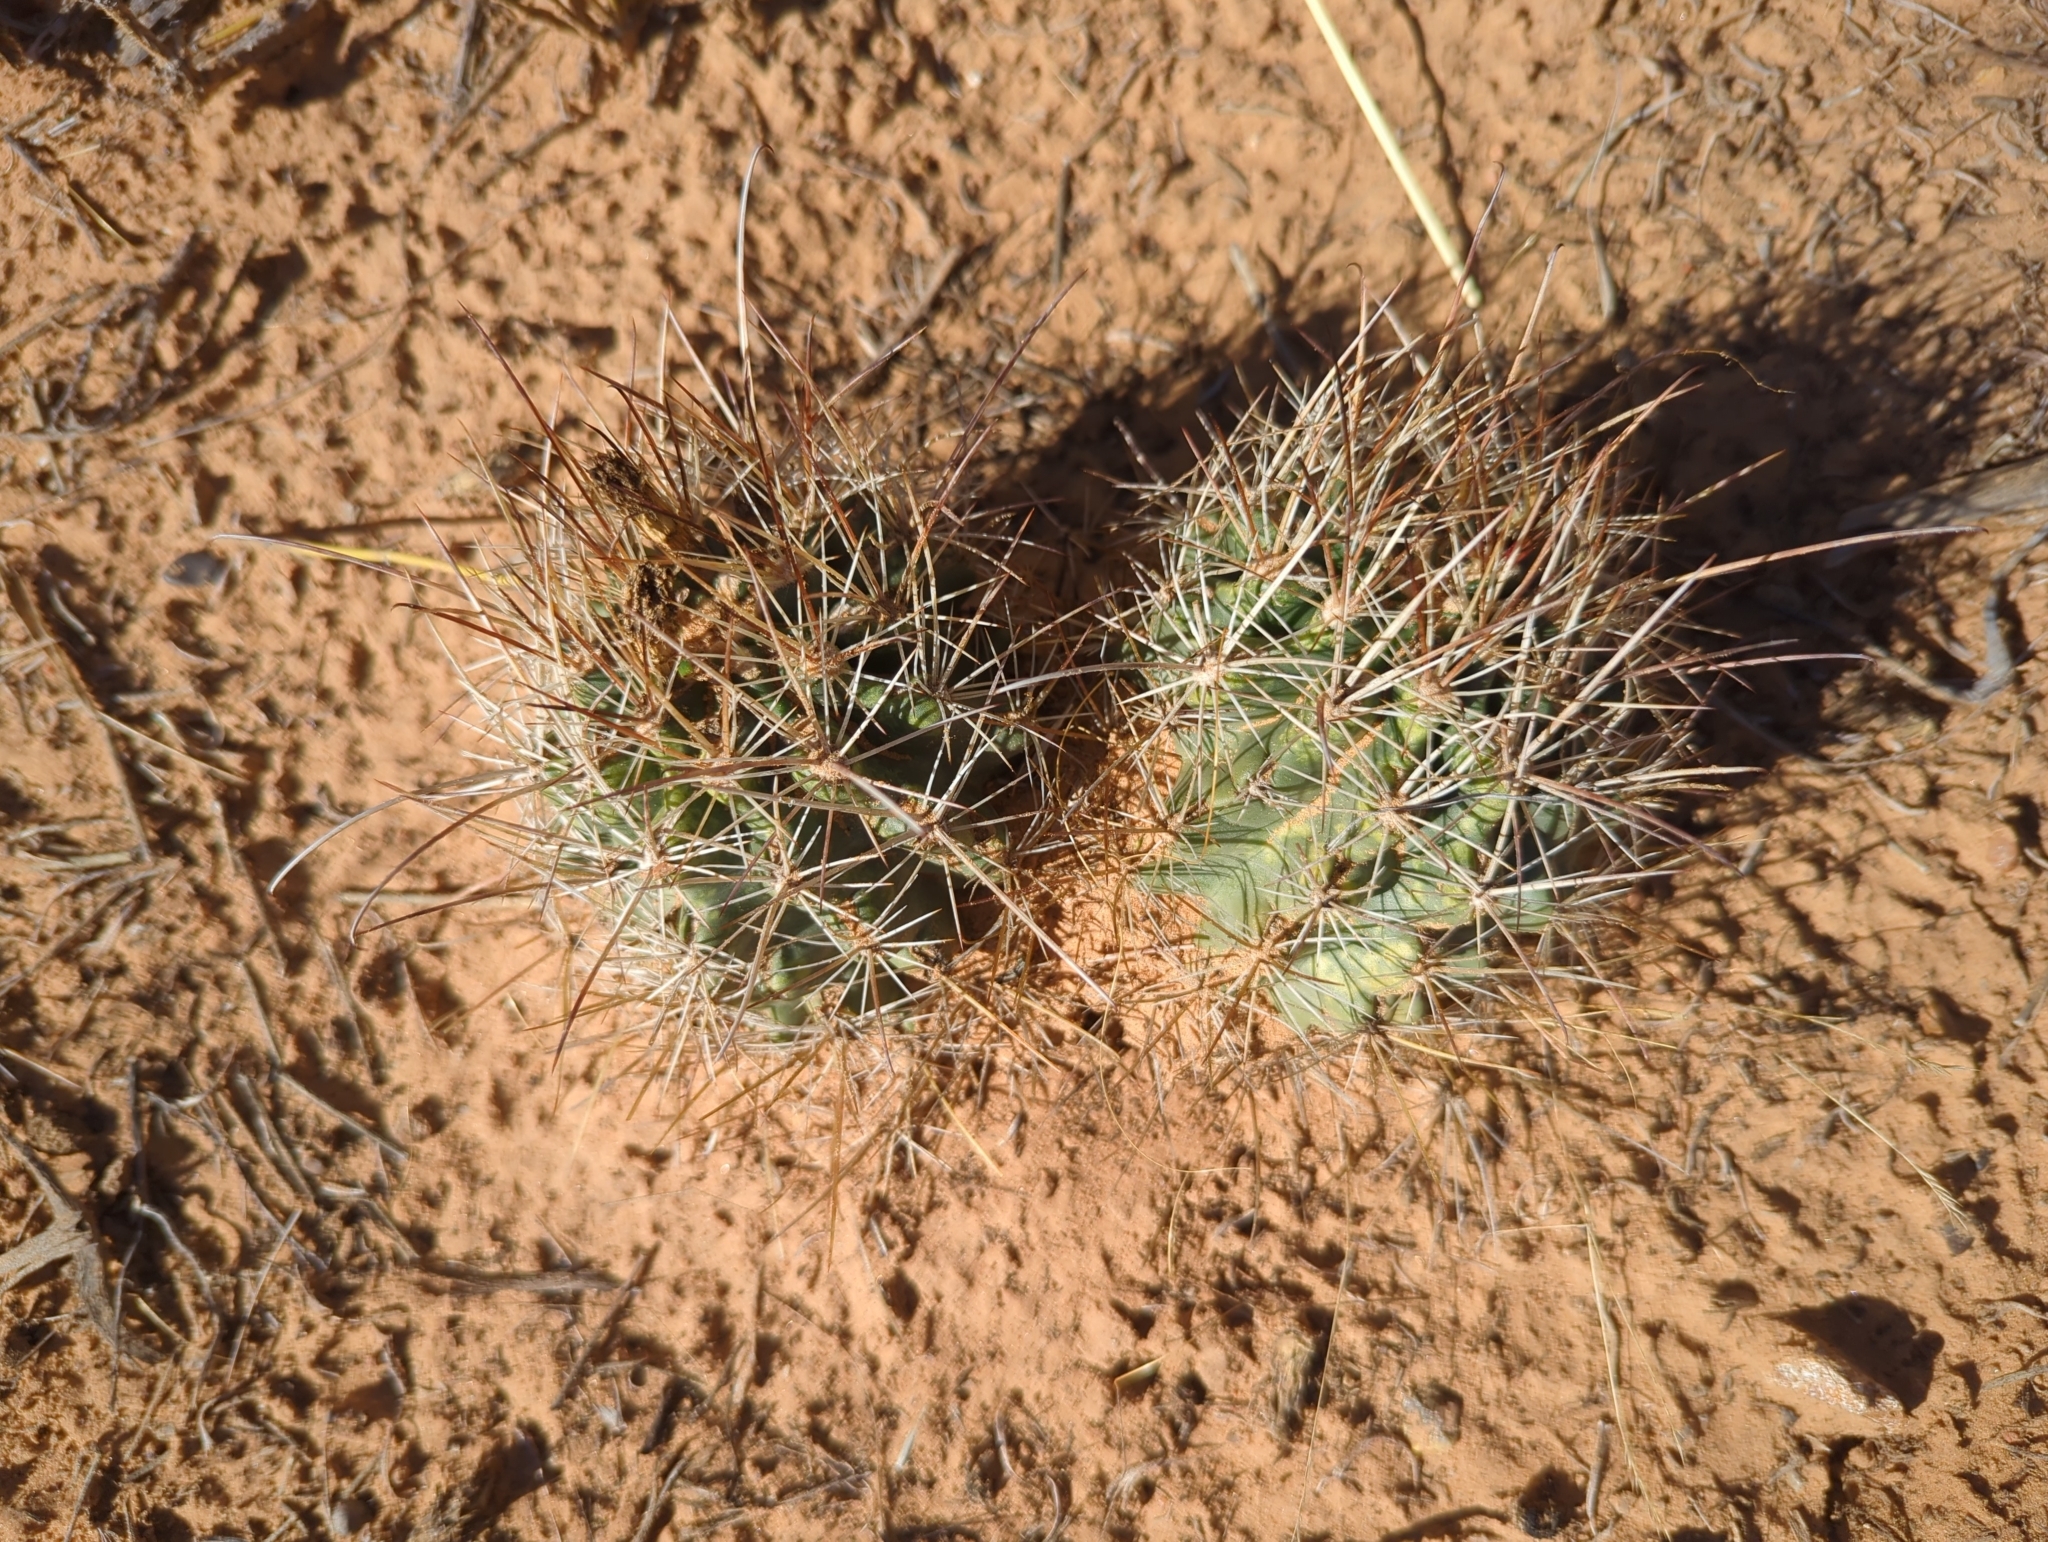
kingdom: Plantae
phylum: Tracheophyta
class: Magnoliopsida
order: Caryophyllales
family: Cactaceae
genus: Sclerocactus
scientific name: Sclerocactus parviflorus
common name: Small-flower fishhook cactus
